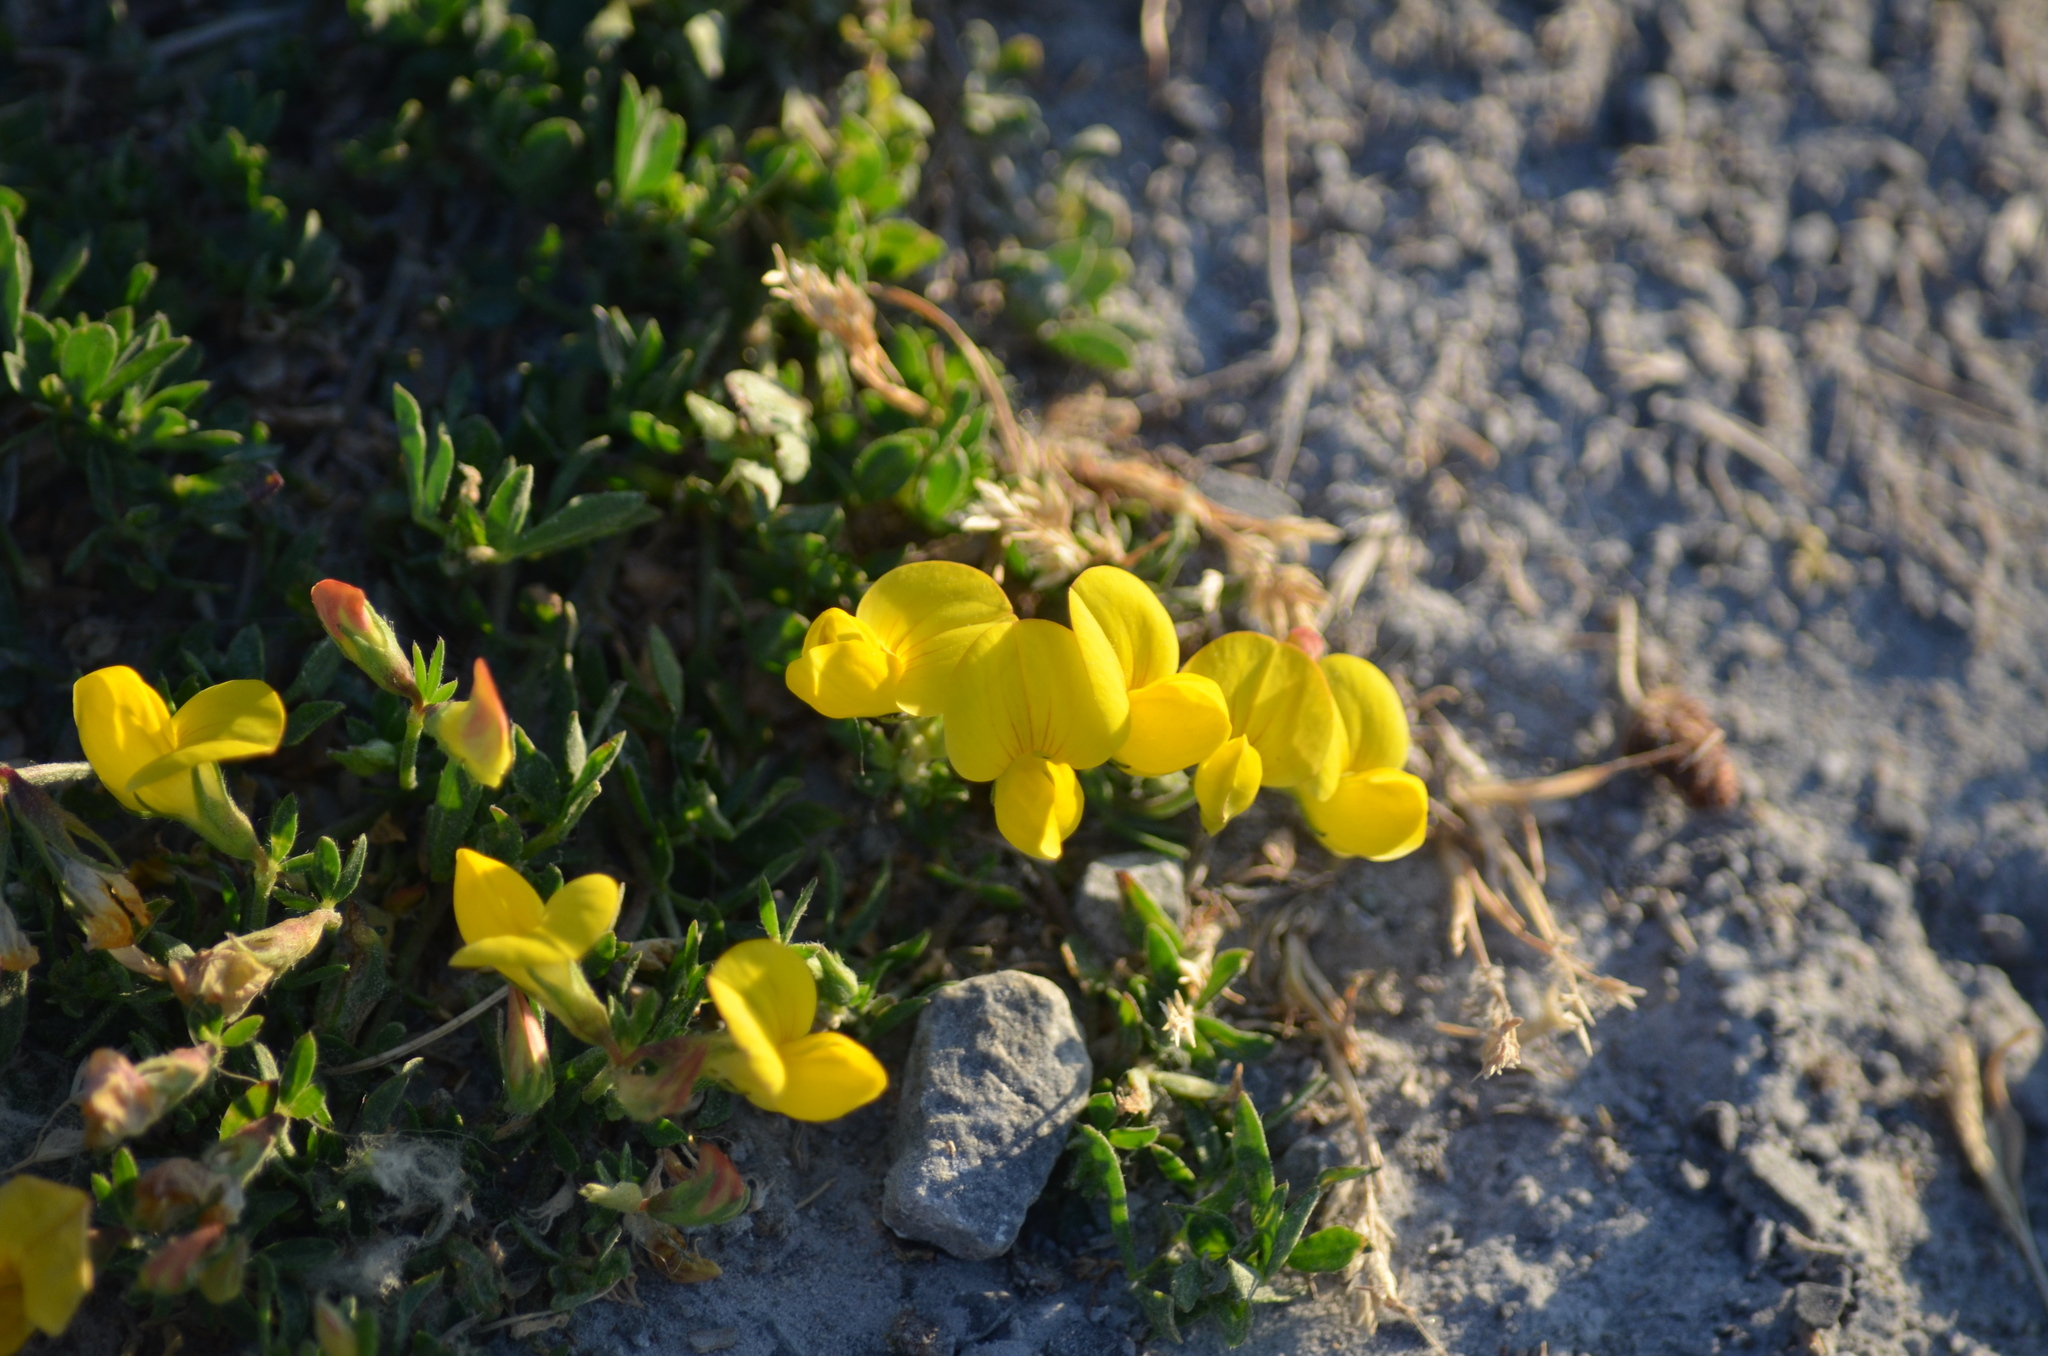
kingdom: Plantae
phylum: Tracheophyta
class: Magnoliopsida
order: Fabales
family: Fabaceae
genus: Lotus
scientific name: Lotus corniculatus
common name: Common bird's-foot-trefoil
